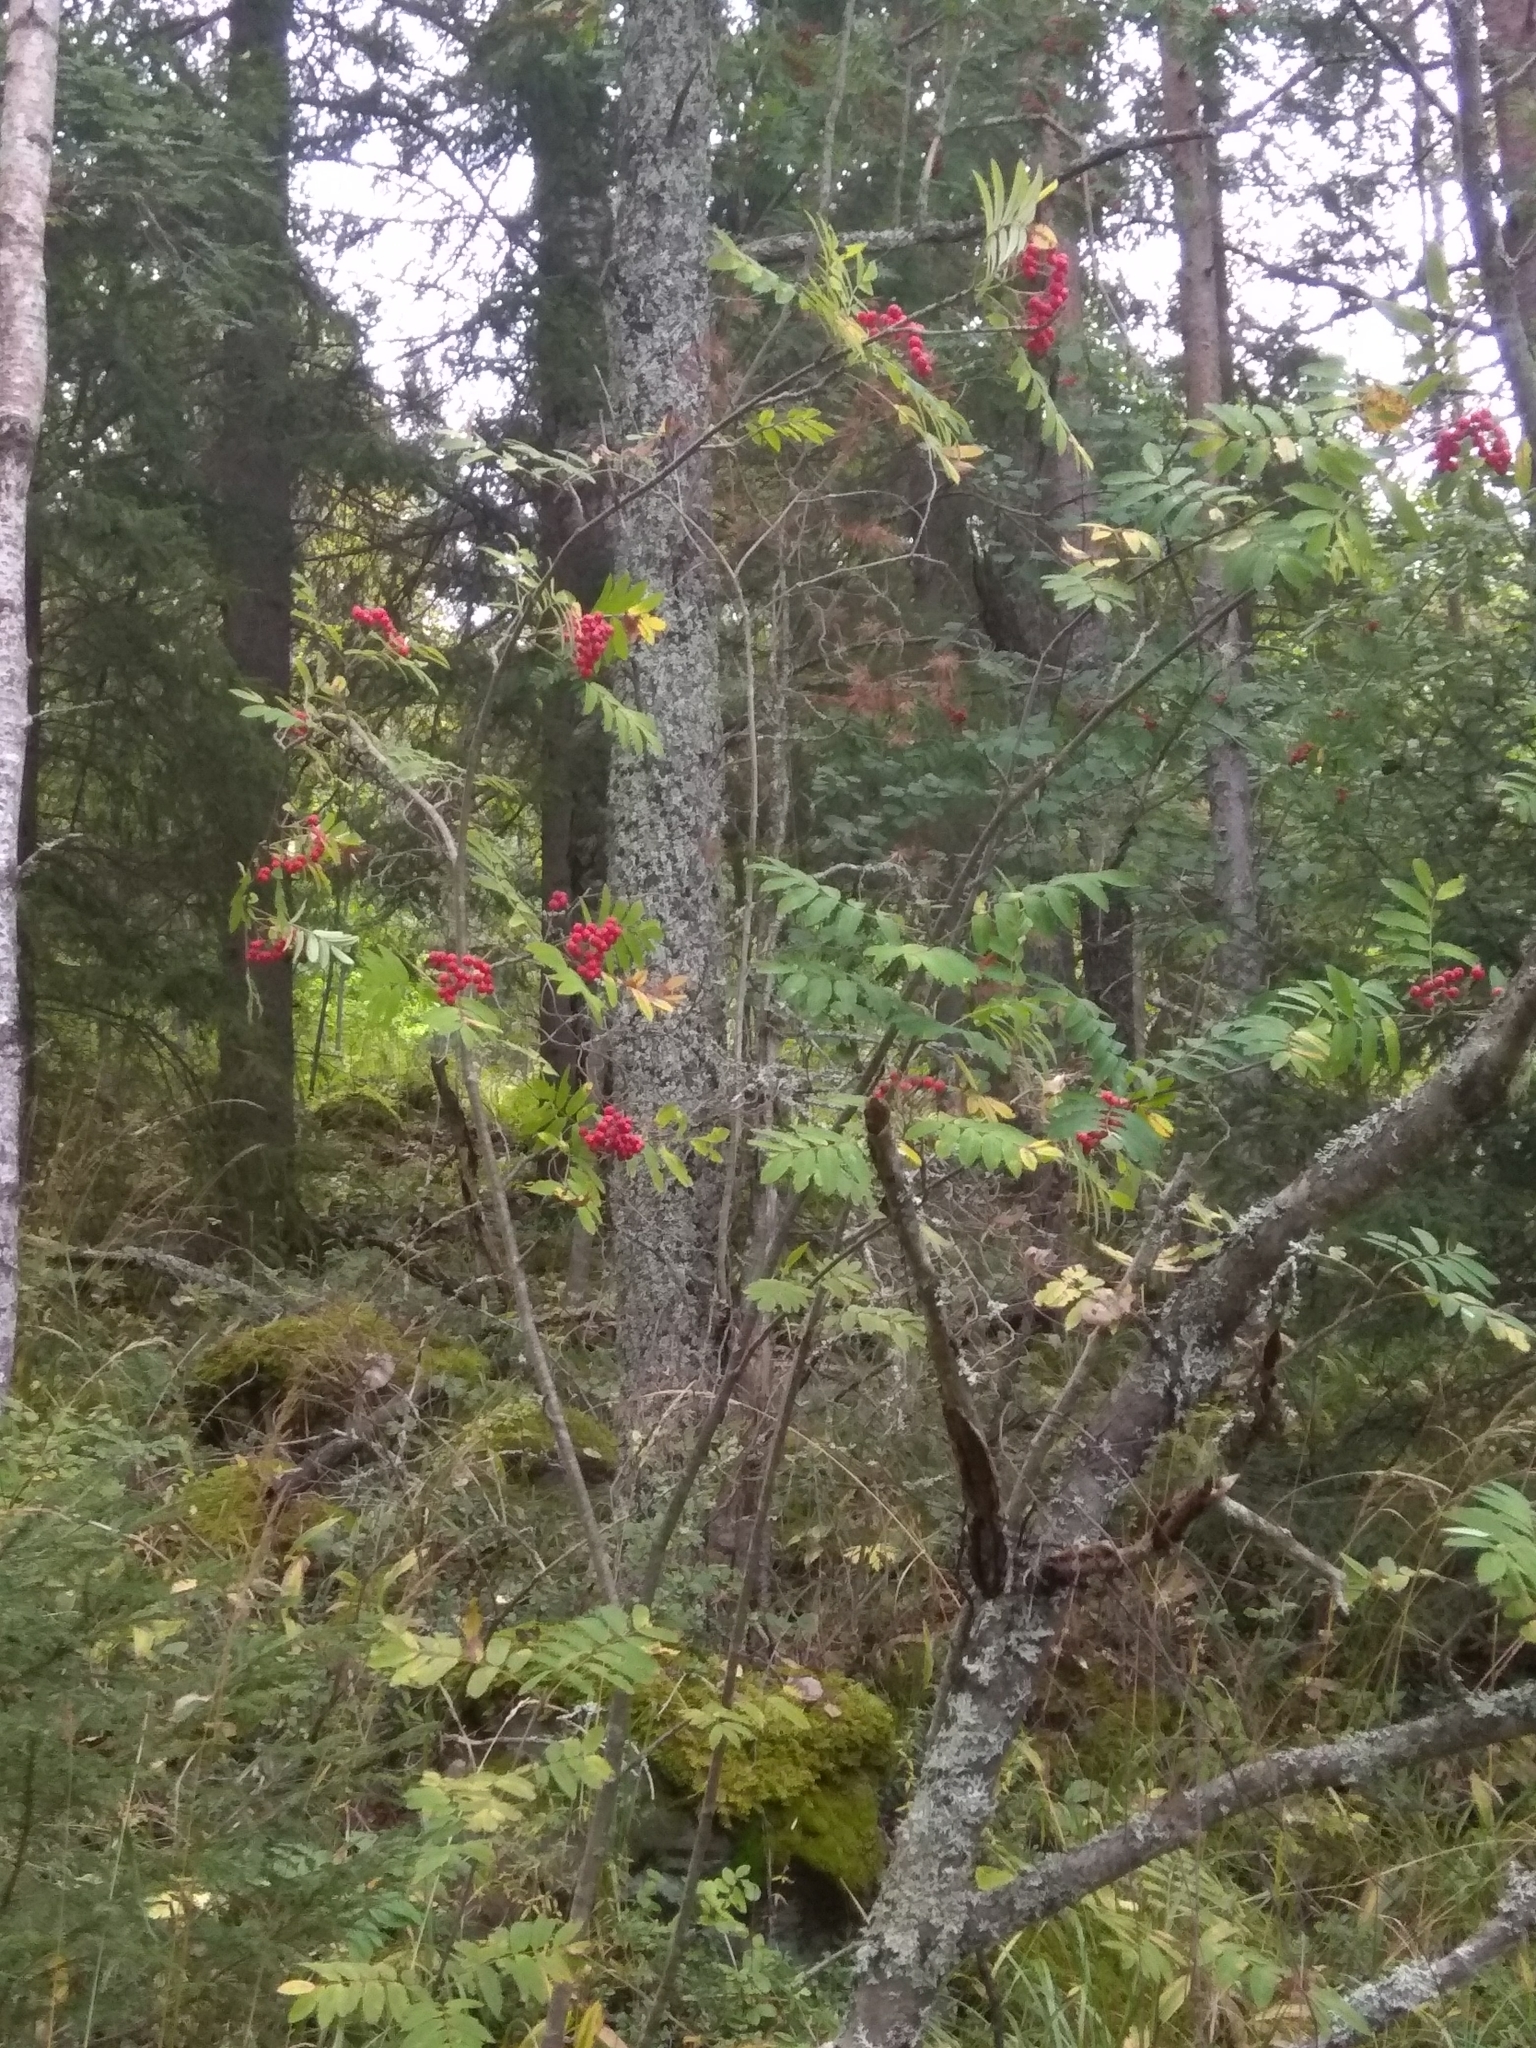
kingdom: Plantae
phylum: Tracheophyta
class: Magnoliopsida
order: Rosales
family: Rosaceae
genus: Sorbus
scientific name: Sorbus aucuparia
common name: Rowan
